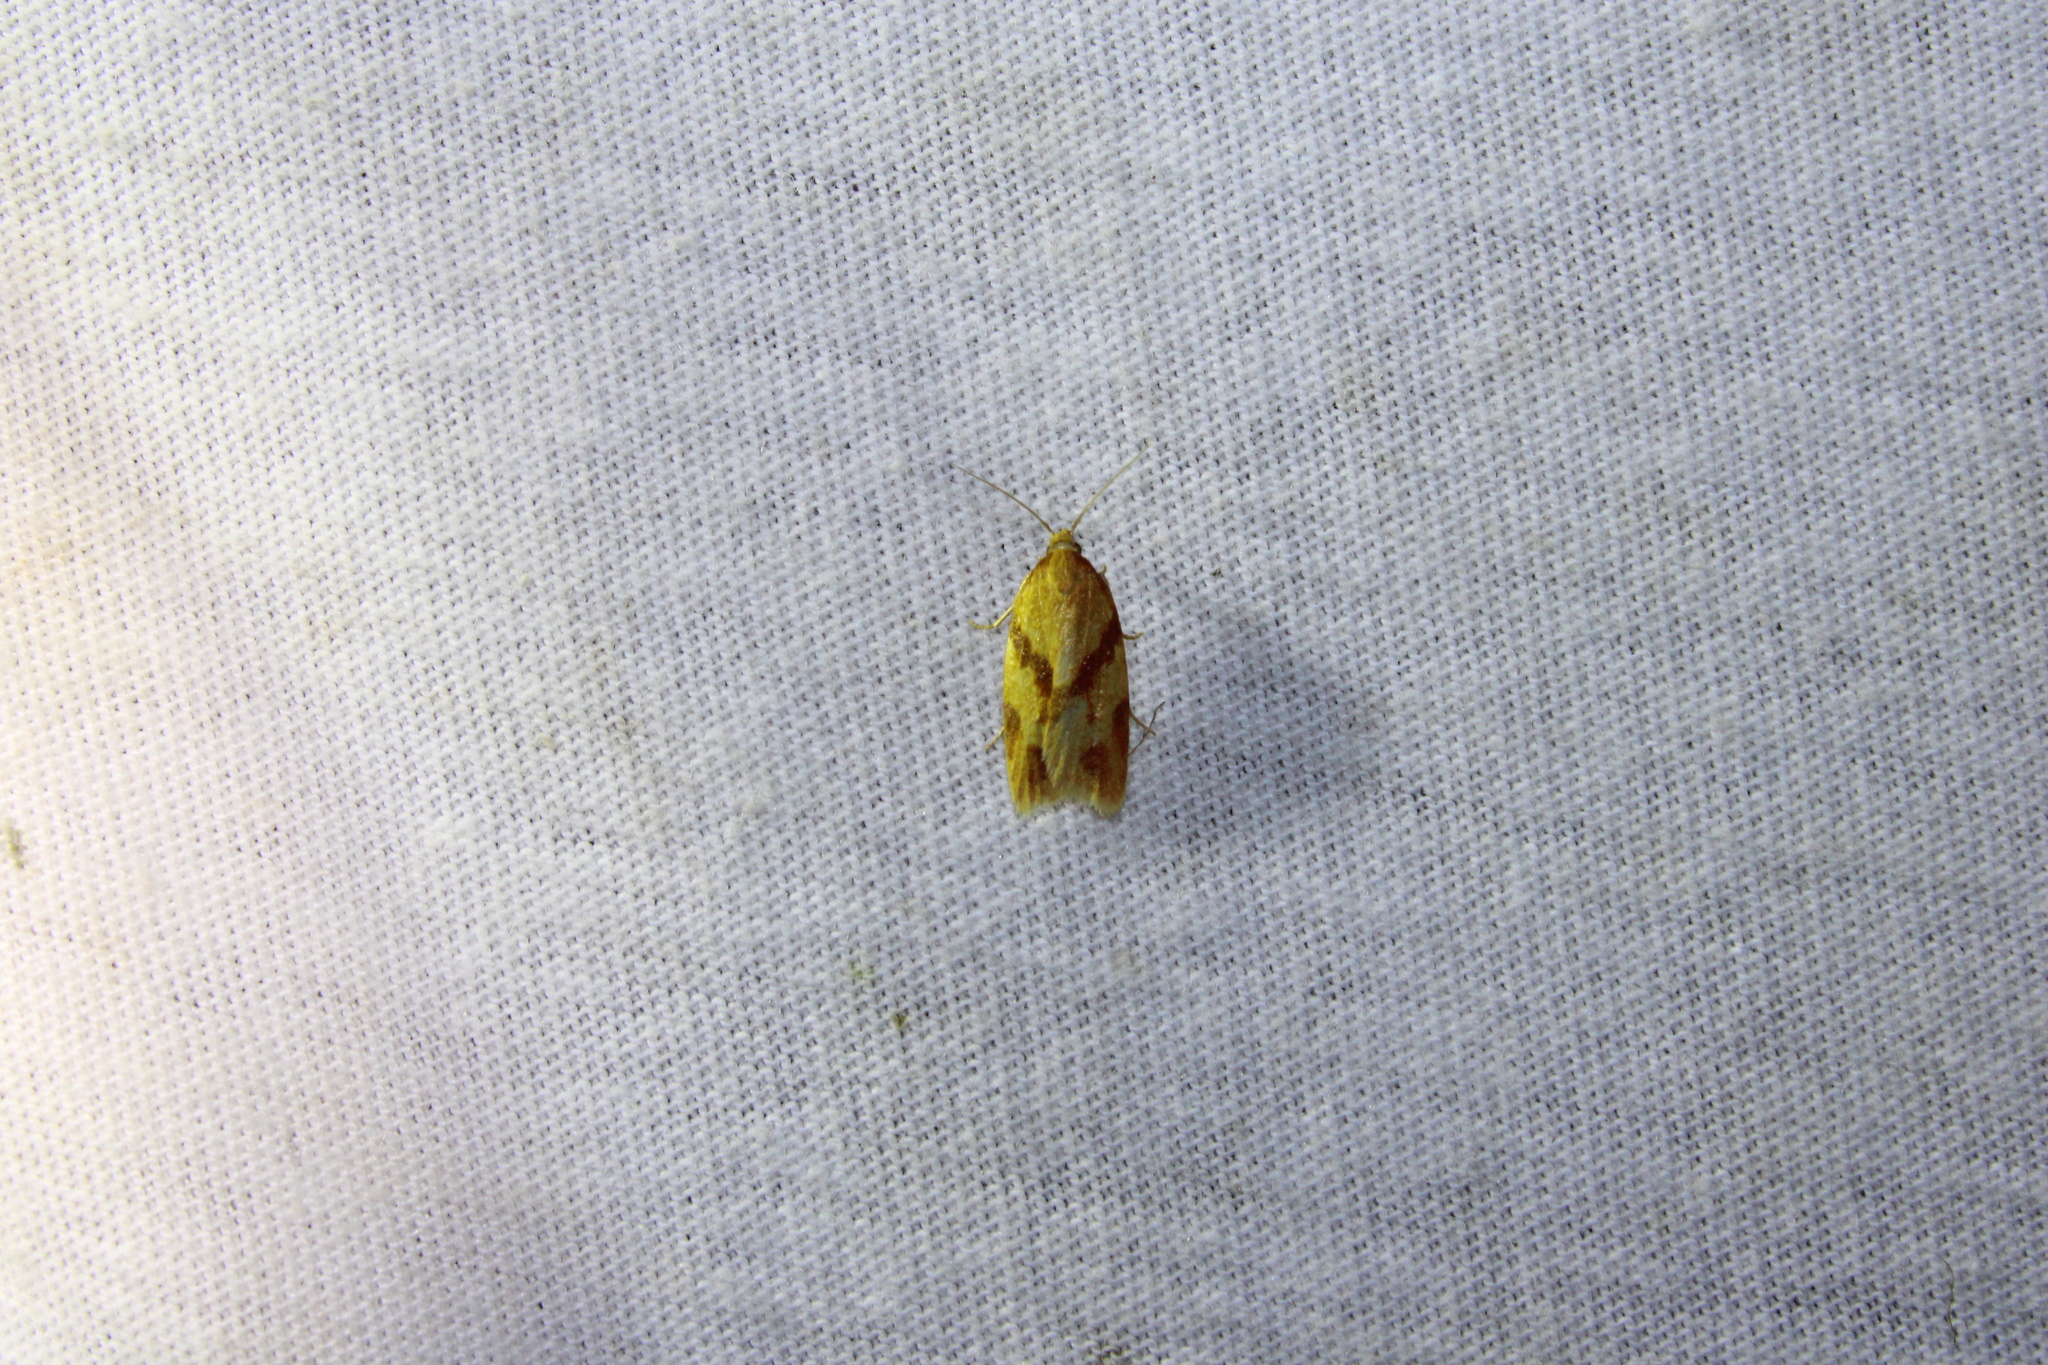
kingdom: Animalia
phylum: Arthropoda
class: Insecta
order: Lepidoptera
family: Tortricidae
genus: Sparganothis
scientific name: Sparganothis unifasciana
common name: One-lined sparganothis moth
